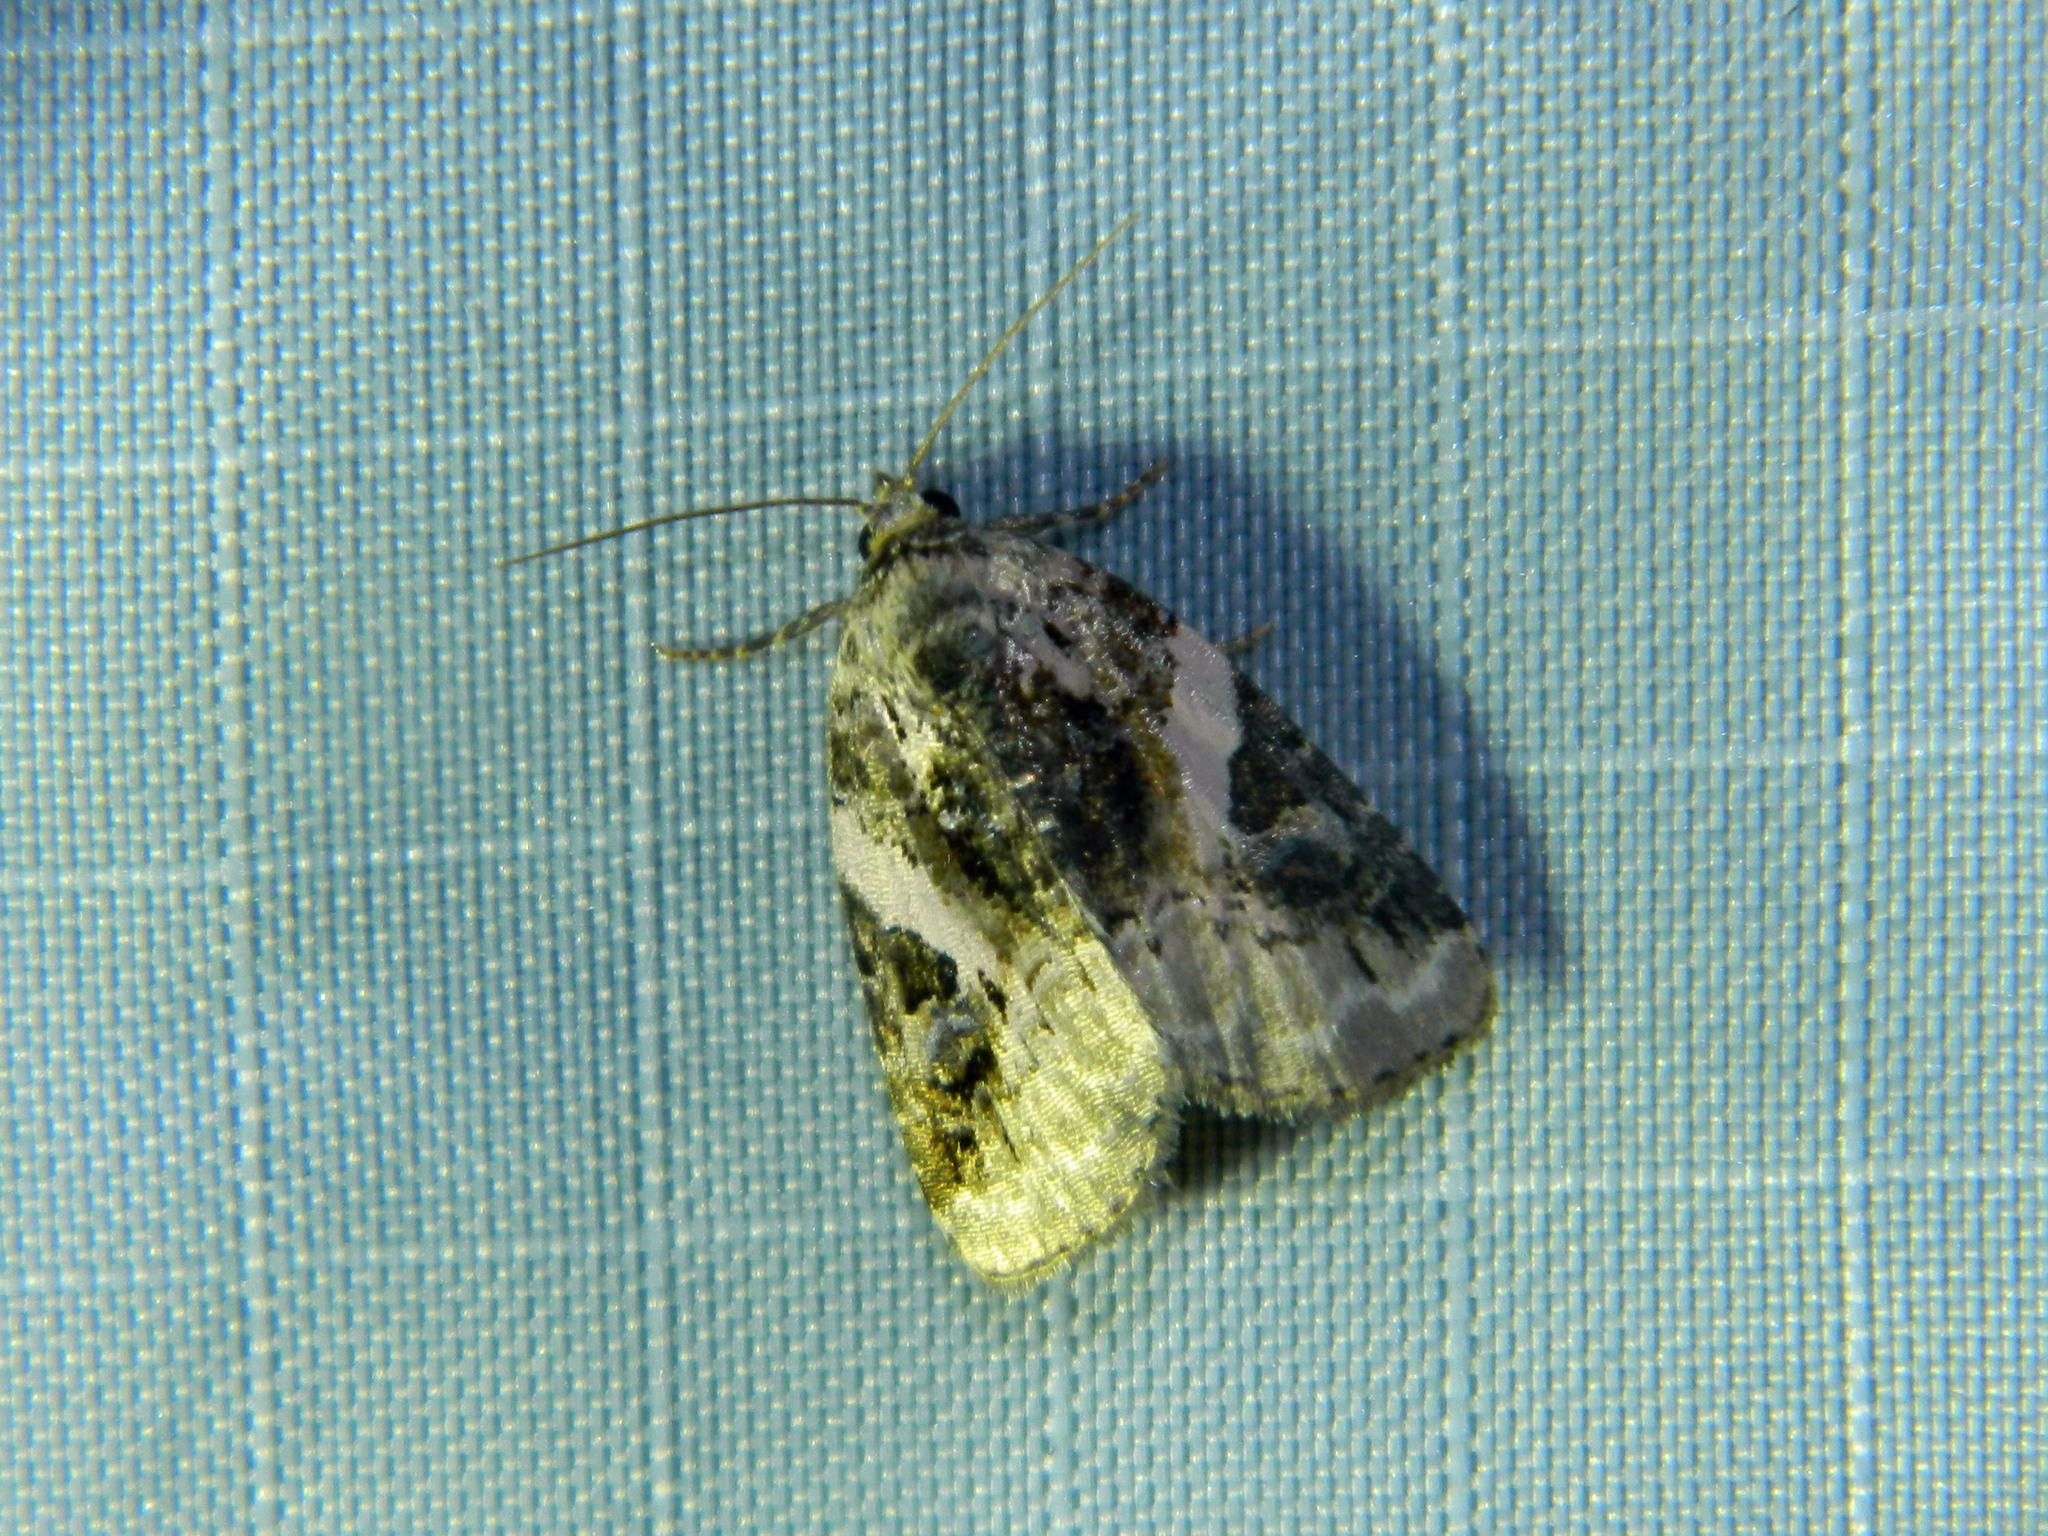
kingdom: Animalia
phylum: Arthropoda
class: Insecta
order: Lepidoptera
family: Noctuidae
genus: Pseudeustrotia
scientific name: Pseudeustrotia carneola
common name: Pink-barred lithacodia moth
